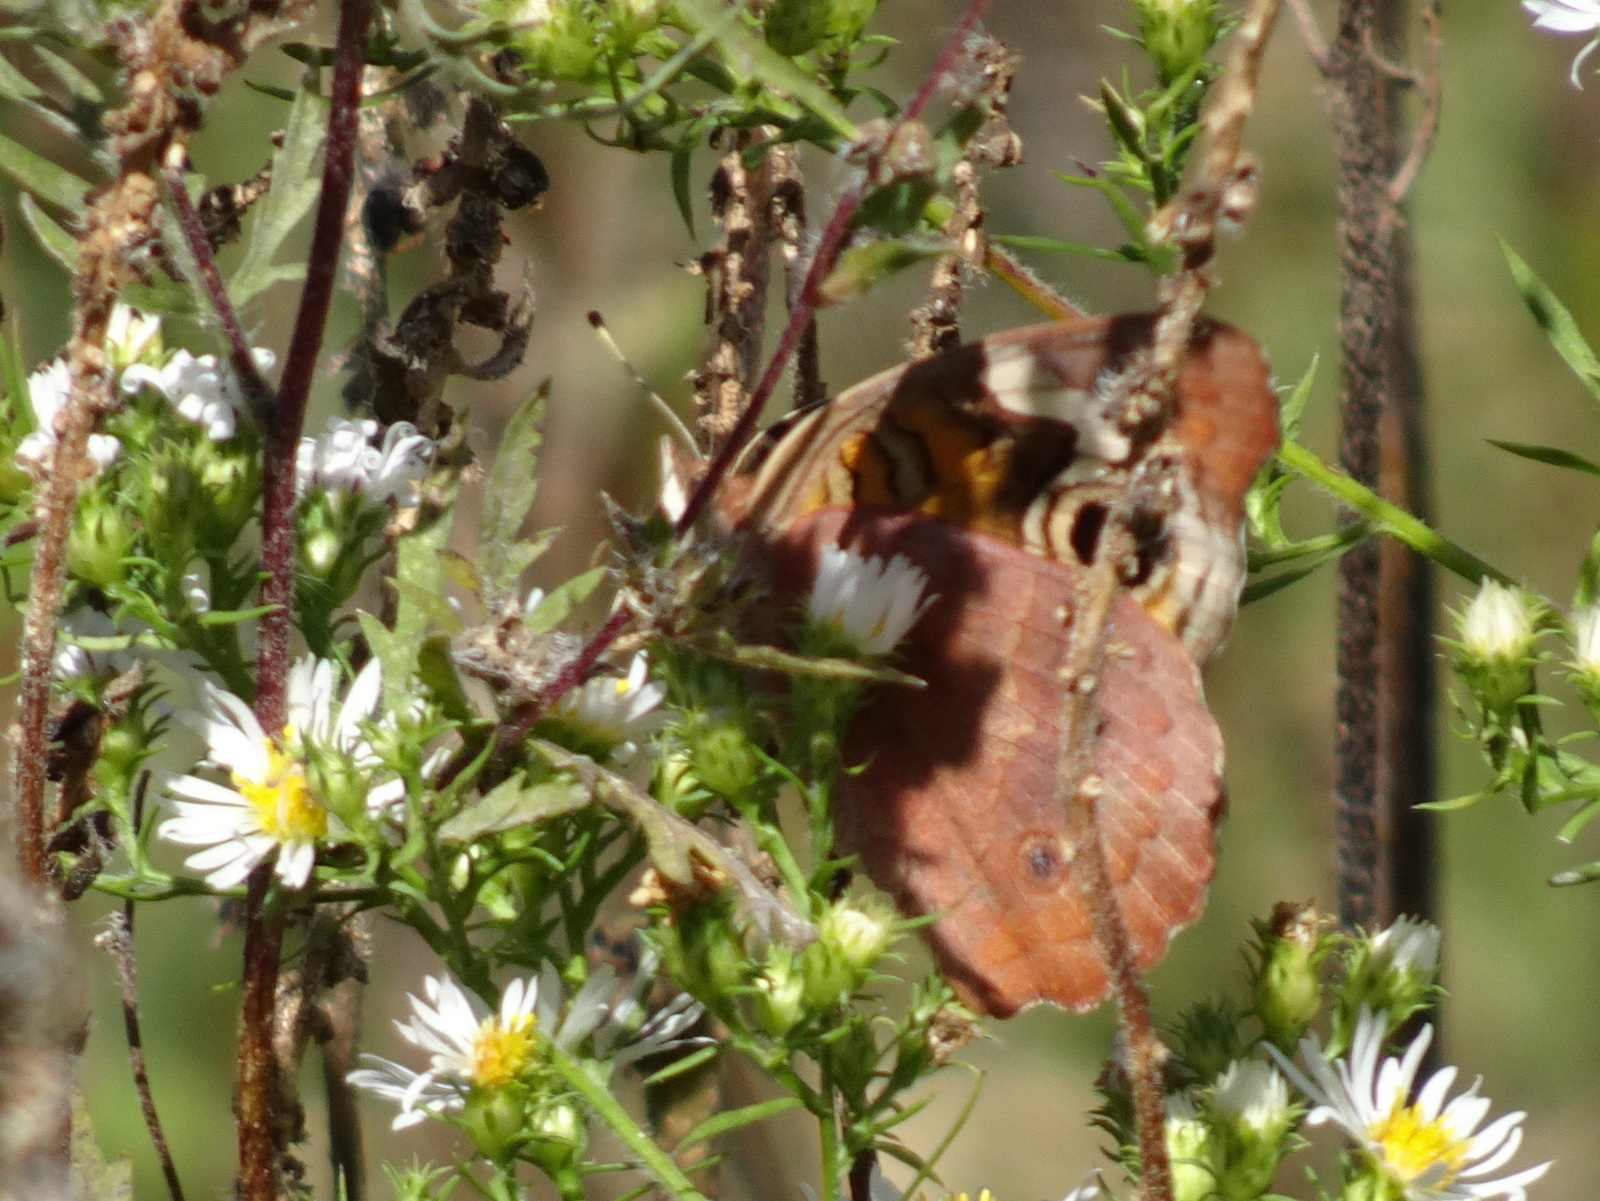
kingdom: Animalia
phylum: Arthropoda
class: Insecta
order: Lepidoptera
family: Nymphalidae
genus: Junonia
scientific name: Junonia coenia
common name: Common buckeye
